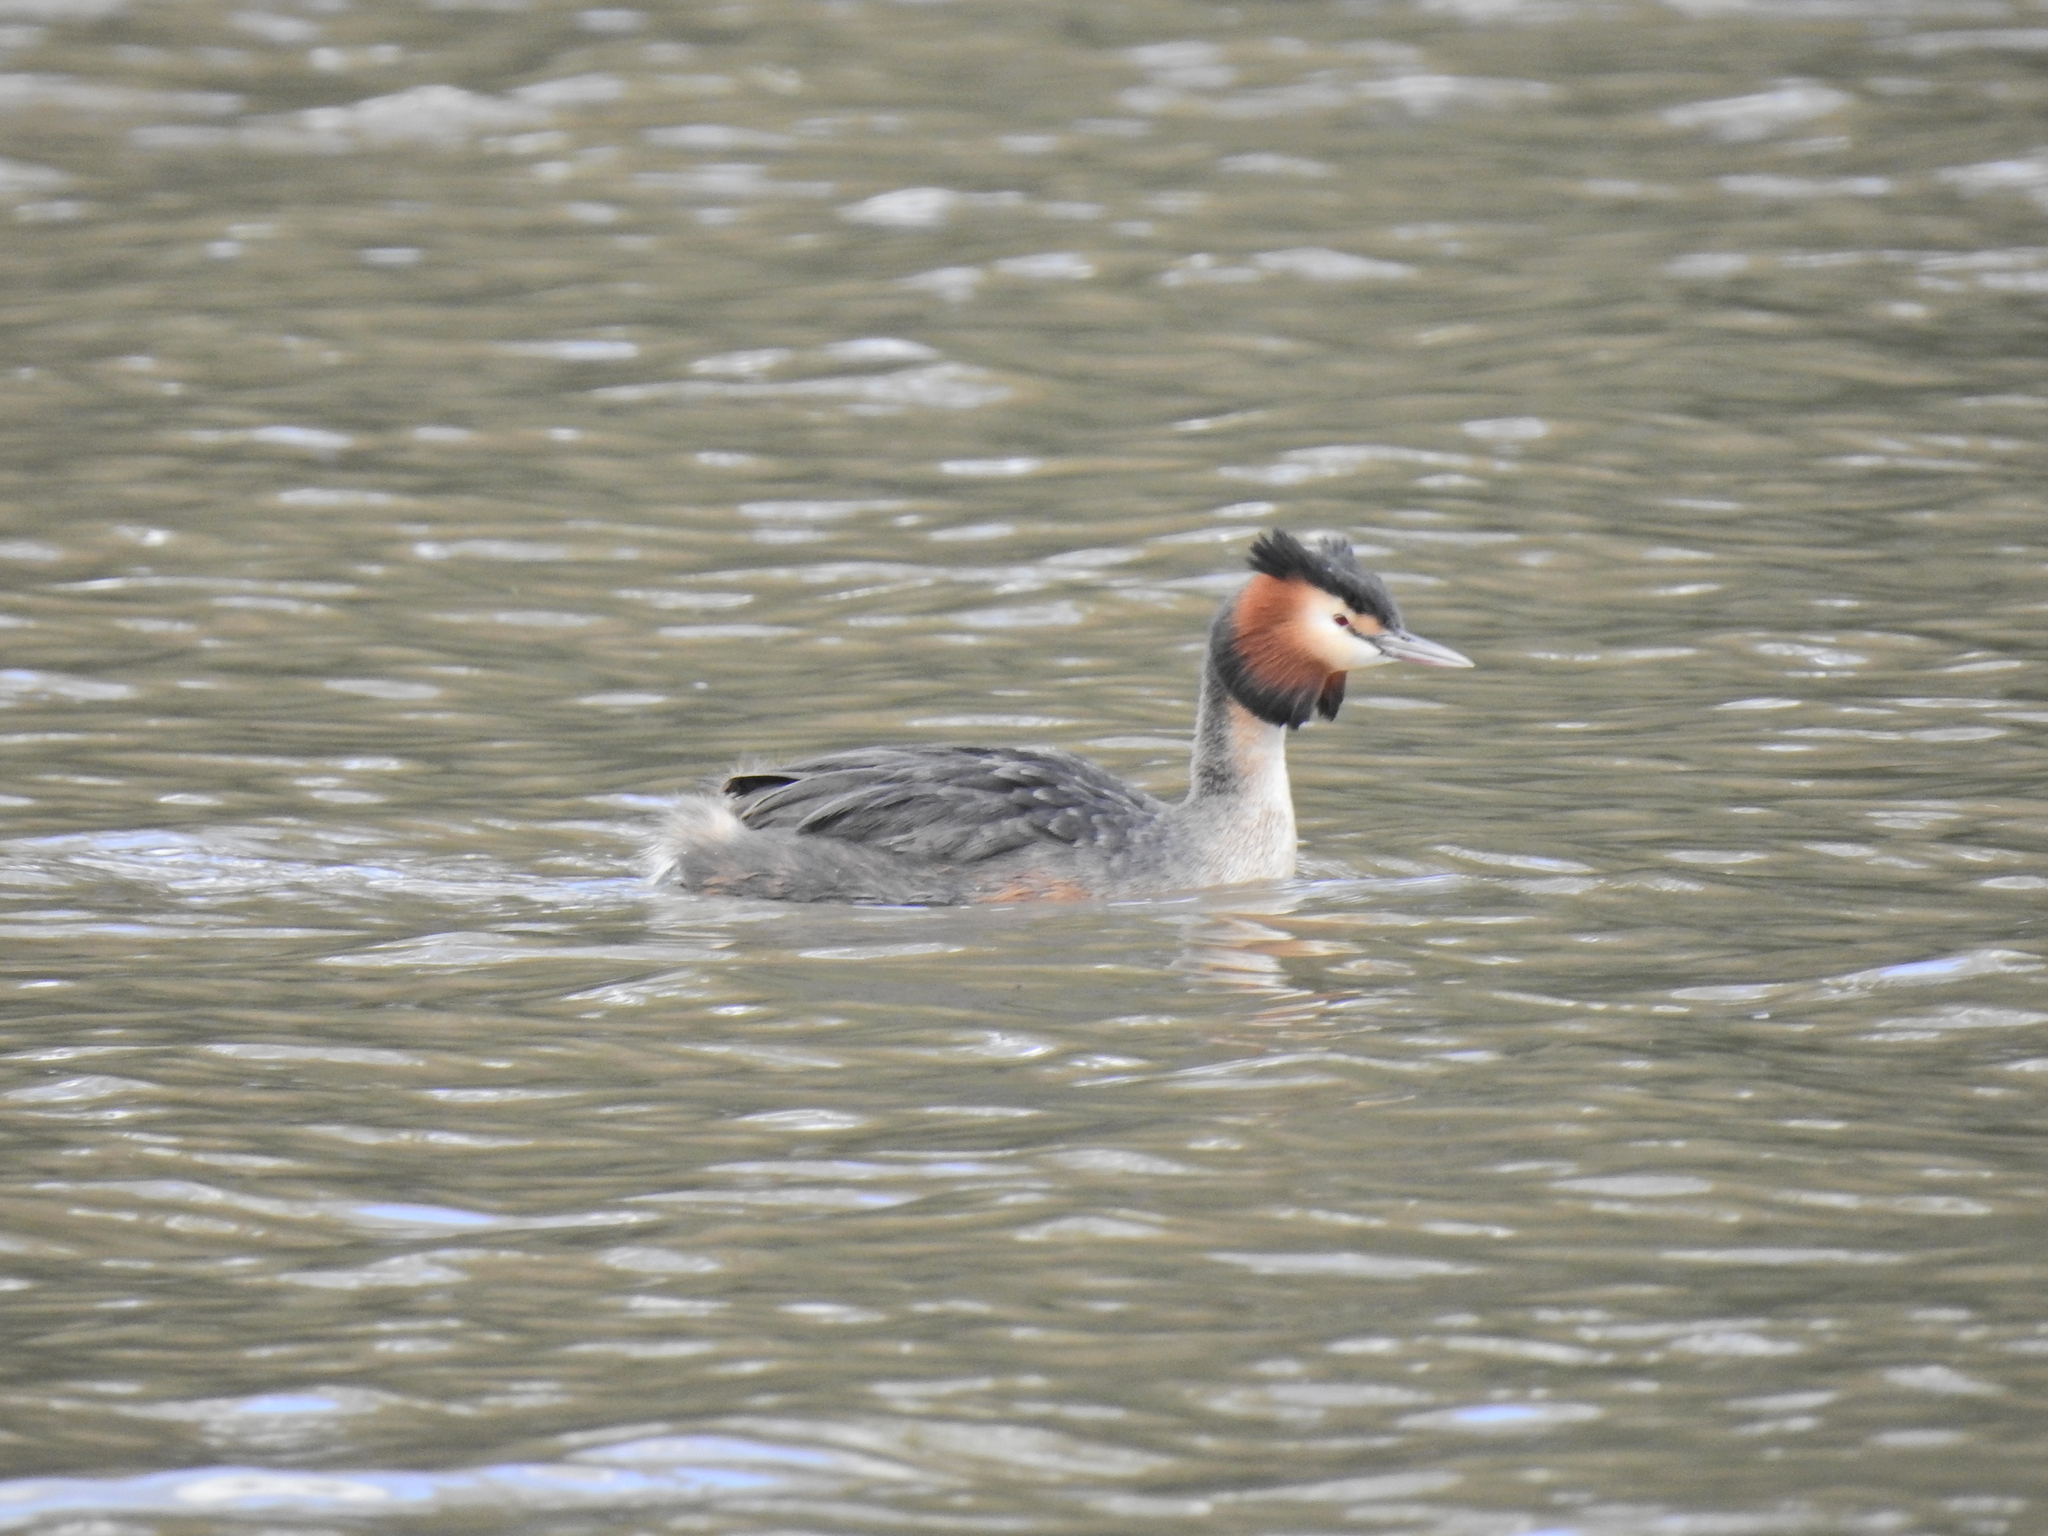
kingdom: Animalia
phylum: Chordata
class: Aves
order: Podicipediformes
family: Podicipedidae
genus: Podiceps
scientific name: Podiceps cristatus
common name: Great crested grebe
